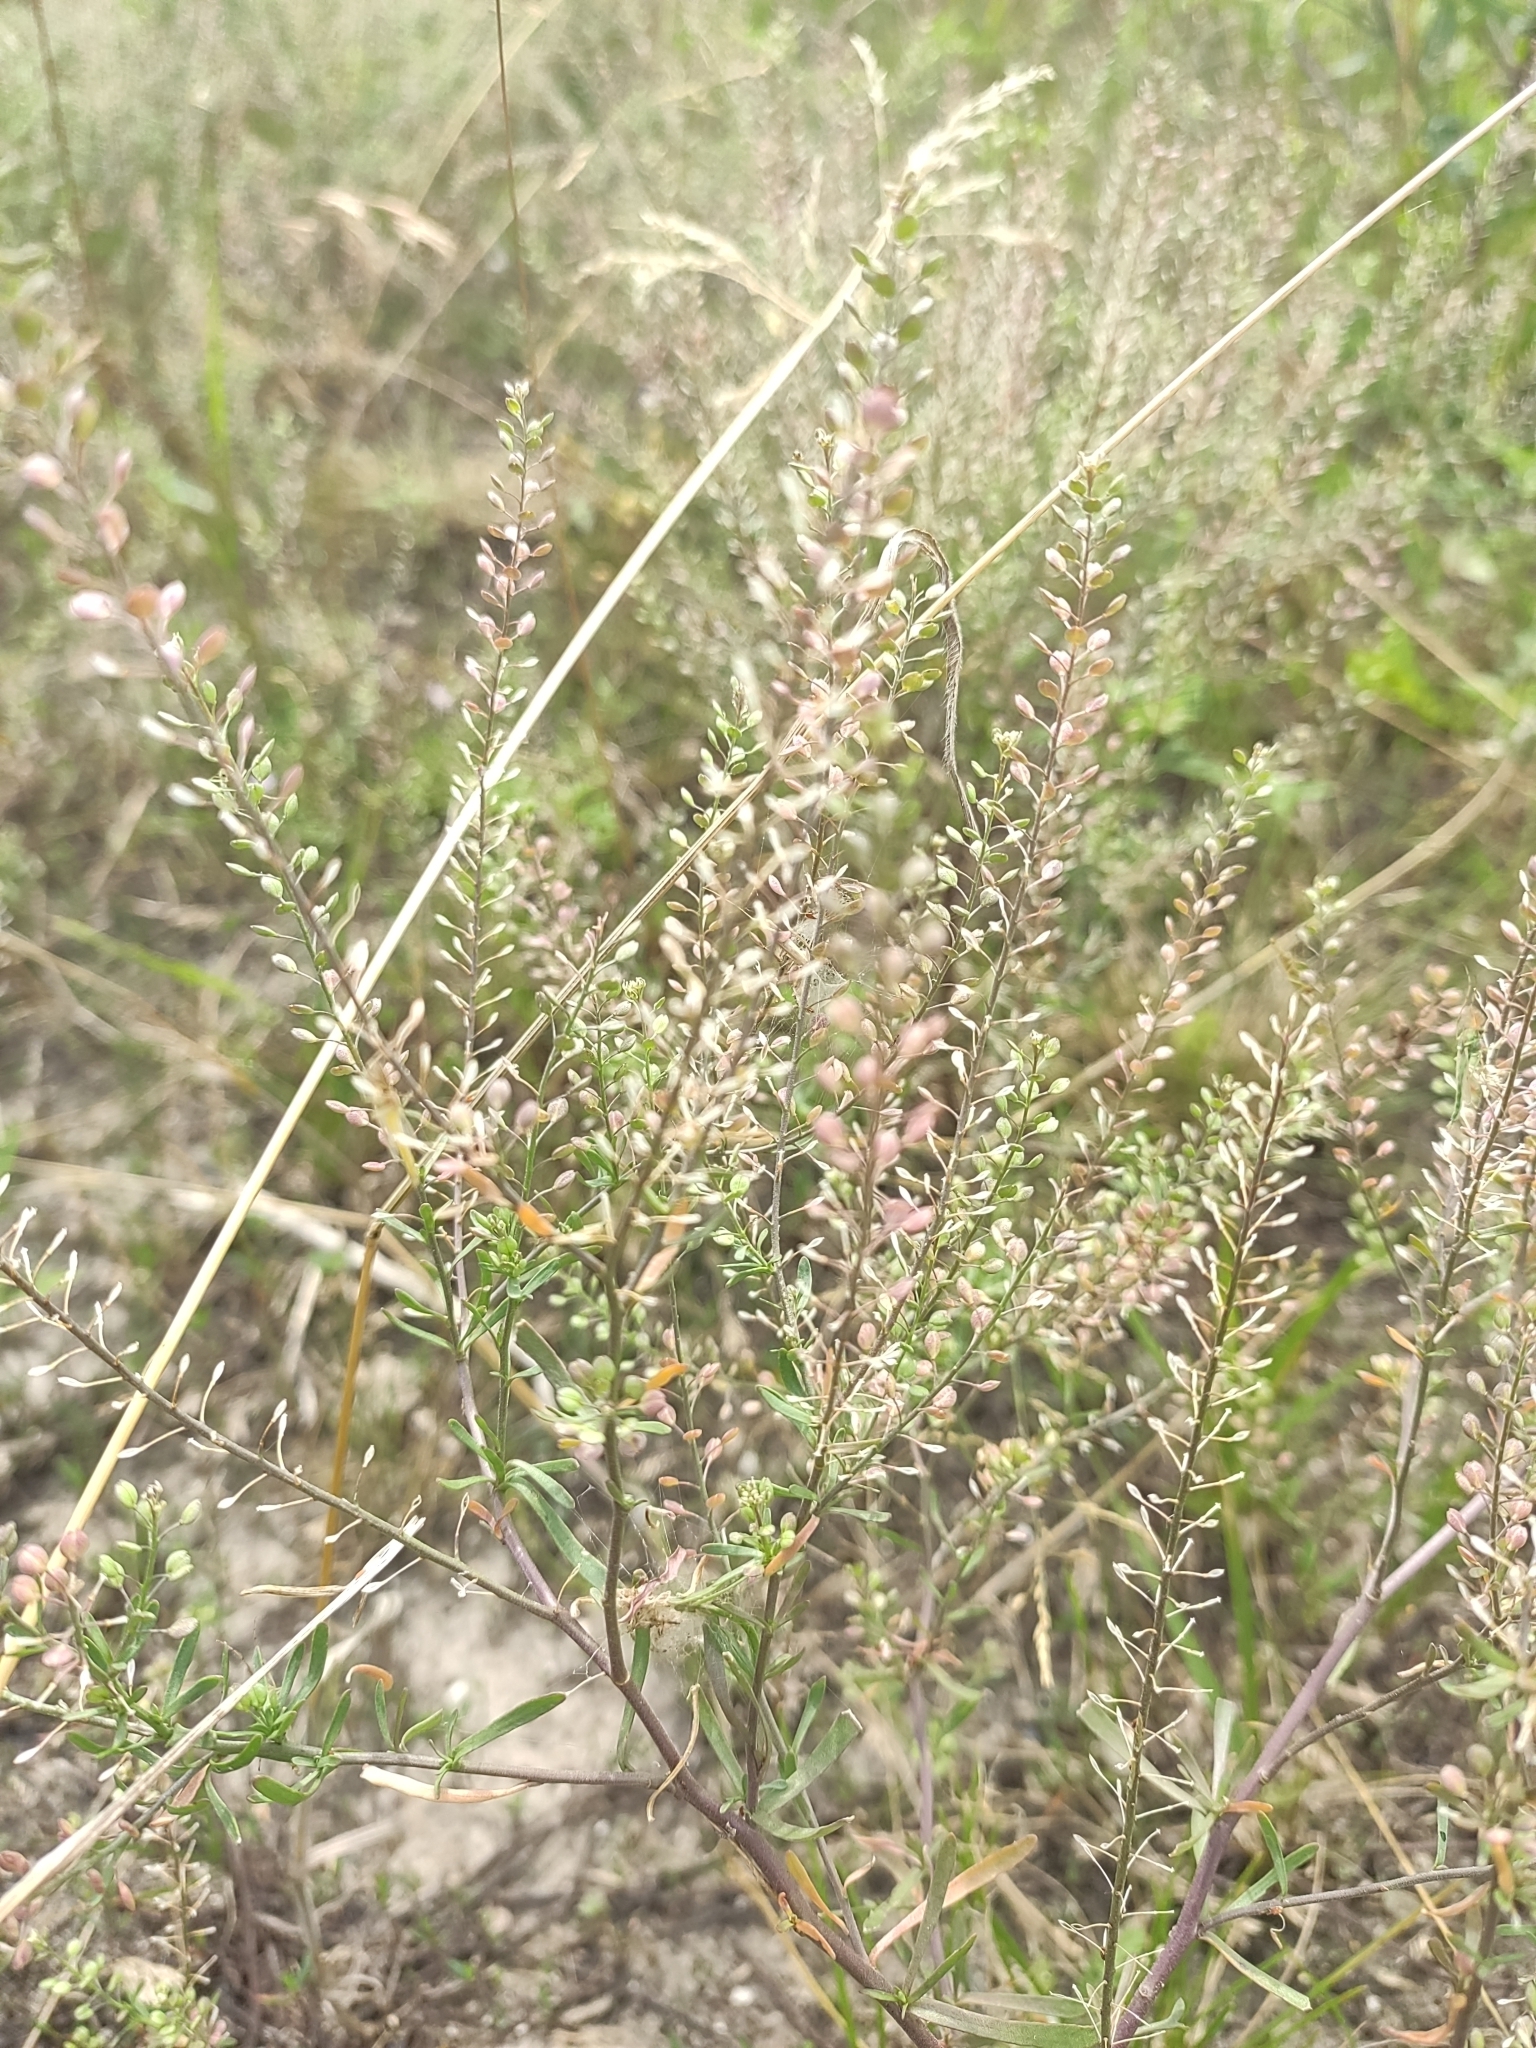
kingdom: Plantae
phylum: Tracheophyta
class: Magnoliopsida
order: Brassicales
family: Brassicaceae
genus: Lepidium
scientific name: Lepidium ruderale
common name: Narrow-leaved pepperwort
